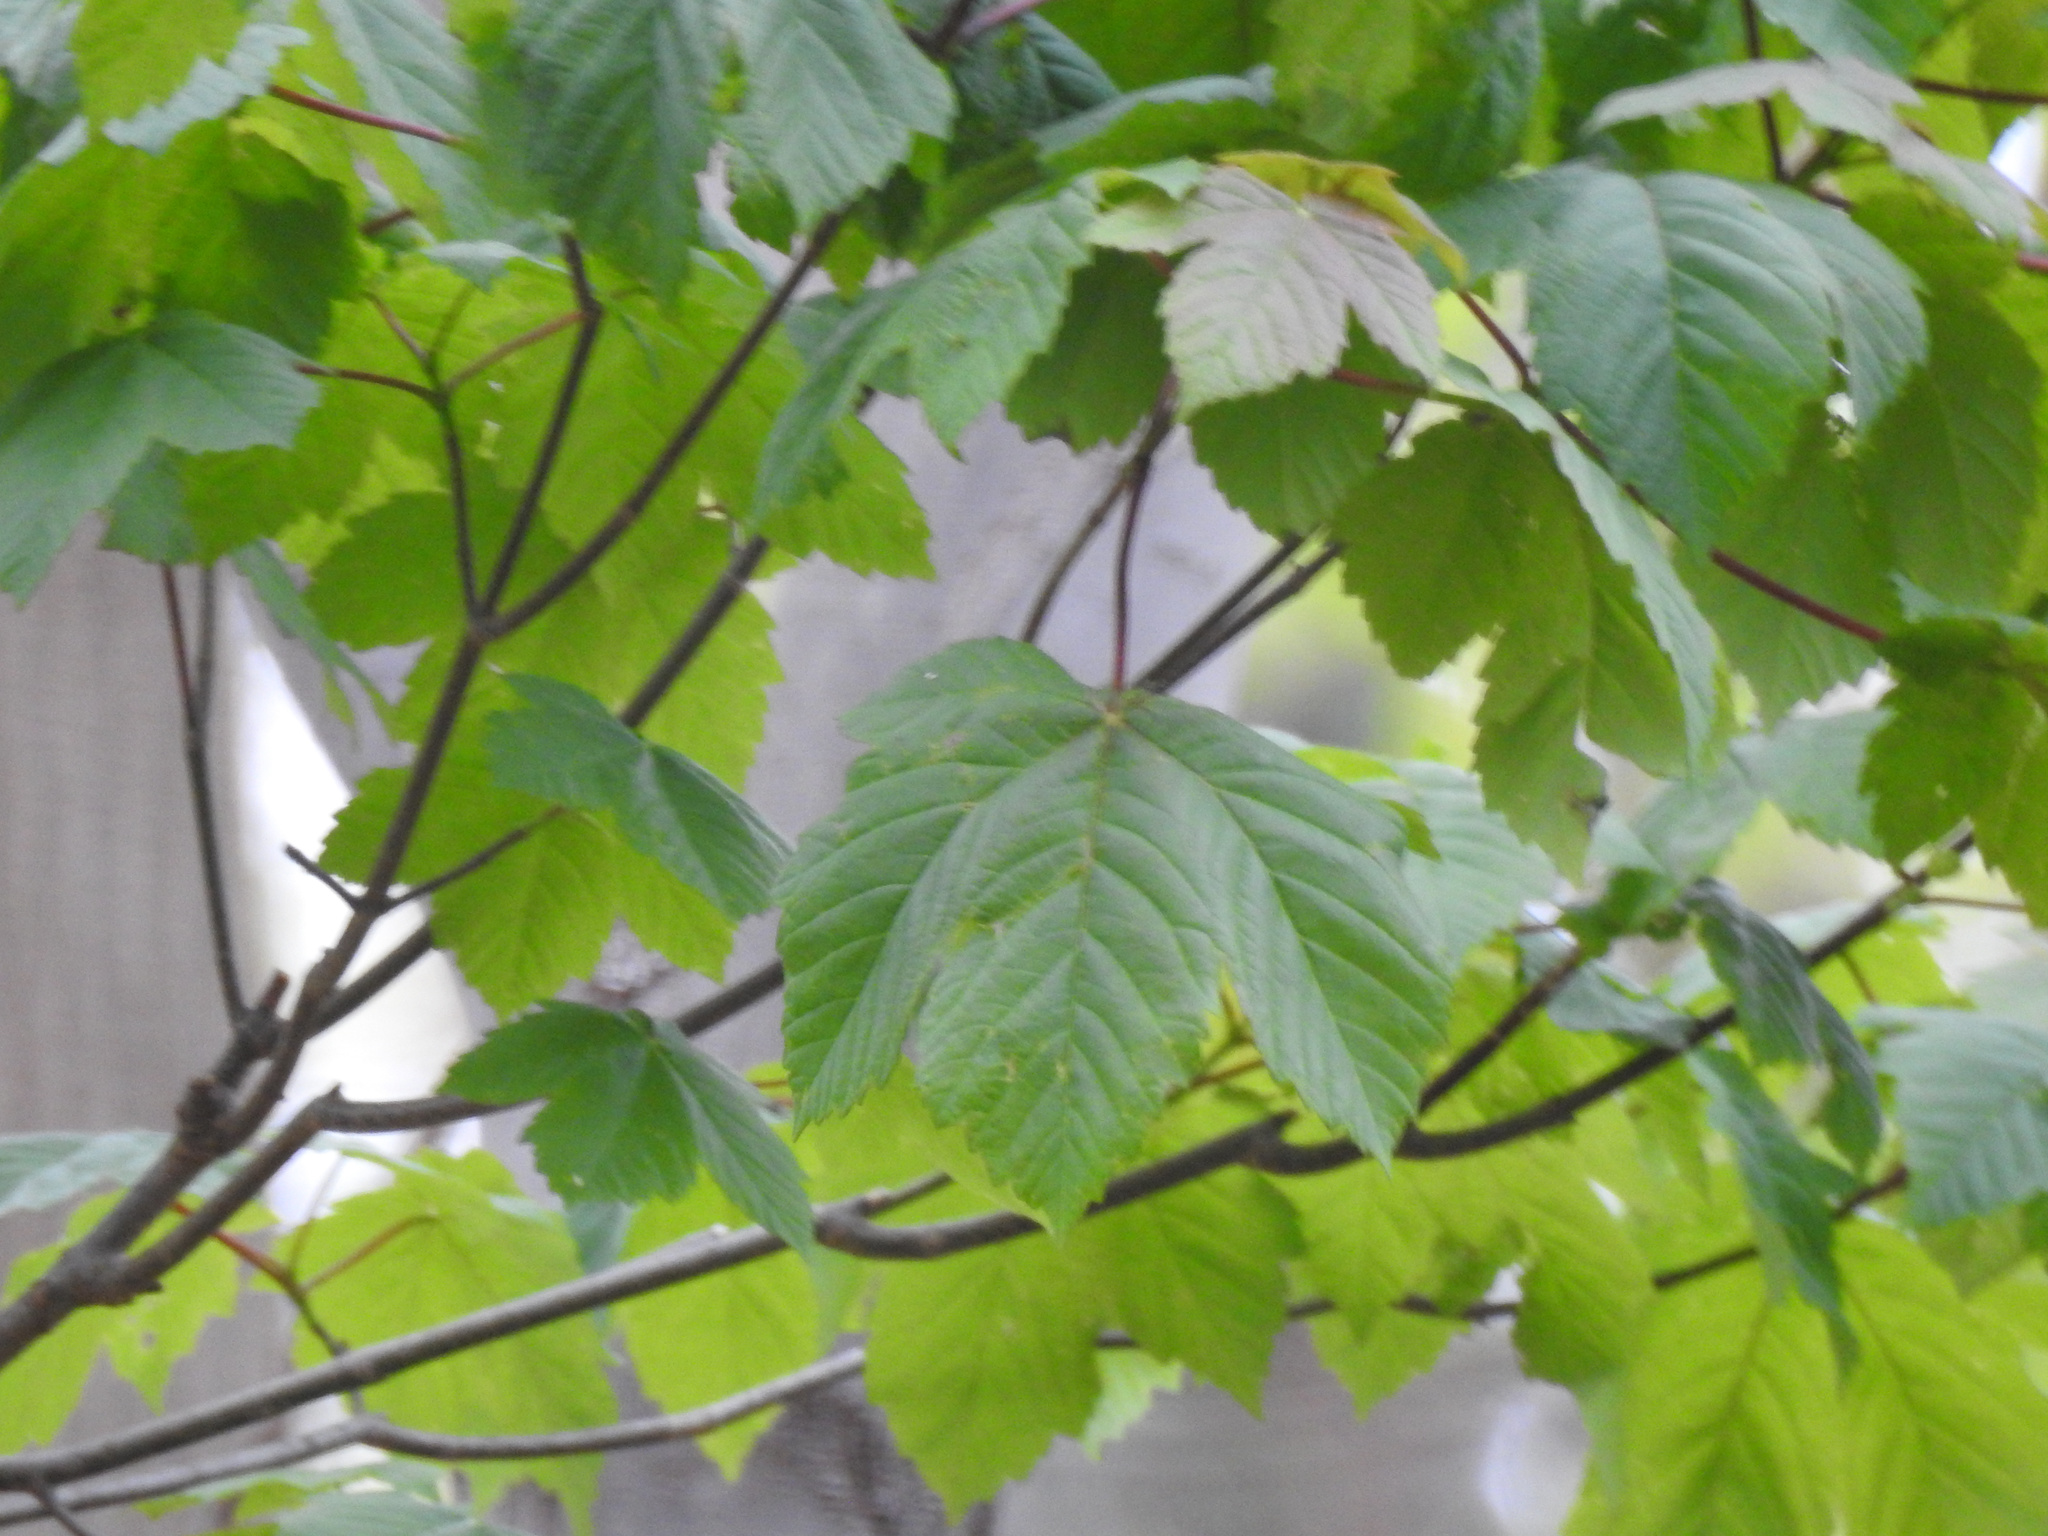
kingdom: Plantae
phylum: Tracheophyta
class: Magnoliopsida
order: Sapindales
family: Sapindaceae
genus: Acer
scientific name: Acer pseudoplatanus
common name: Sycamore
